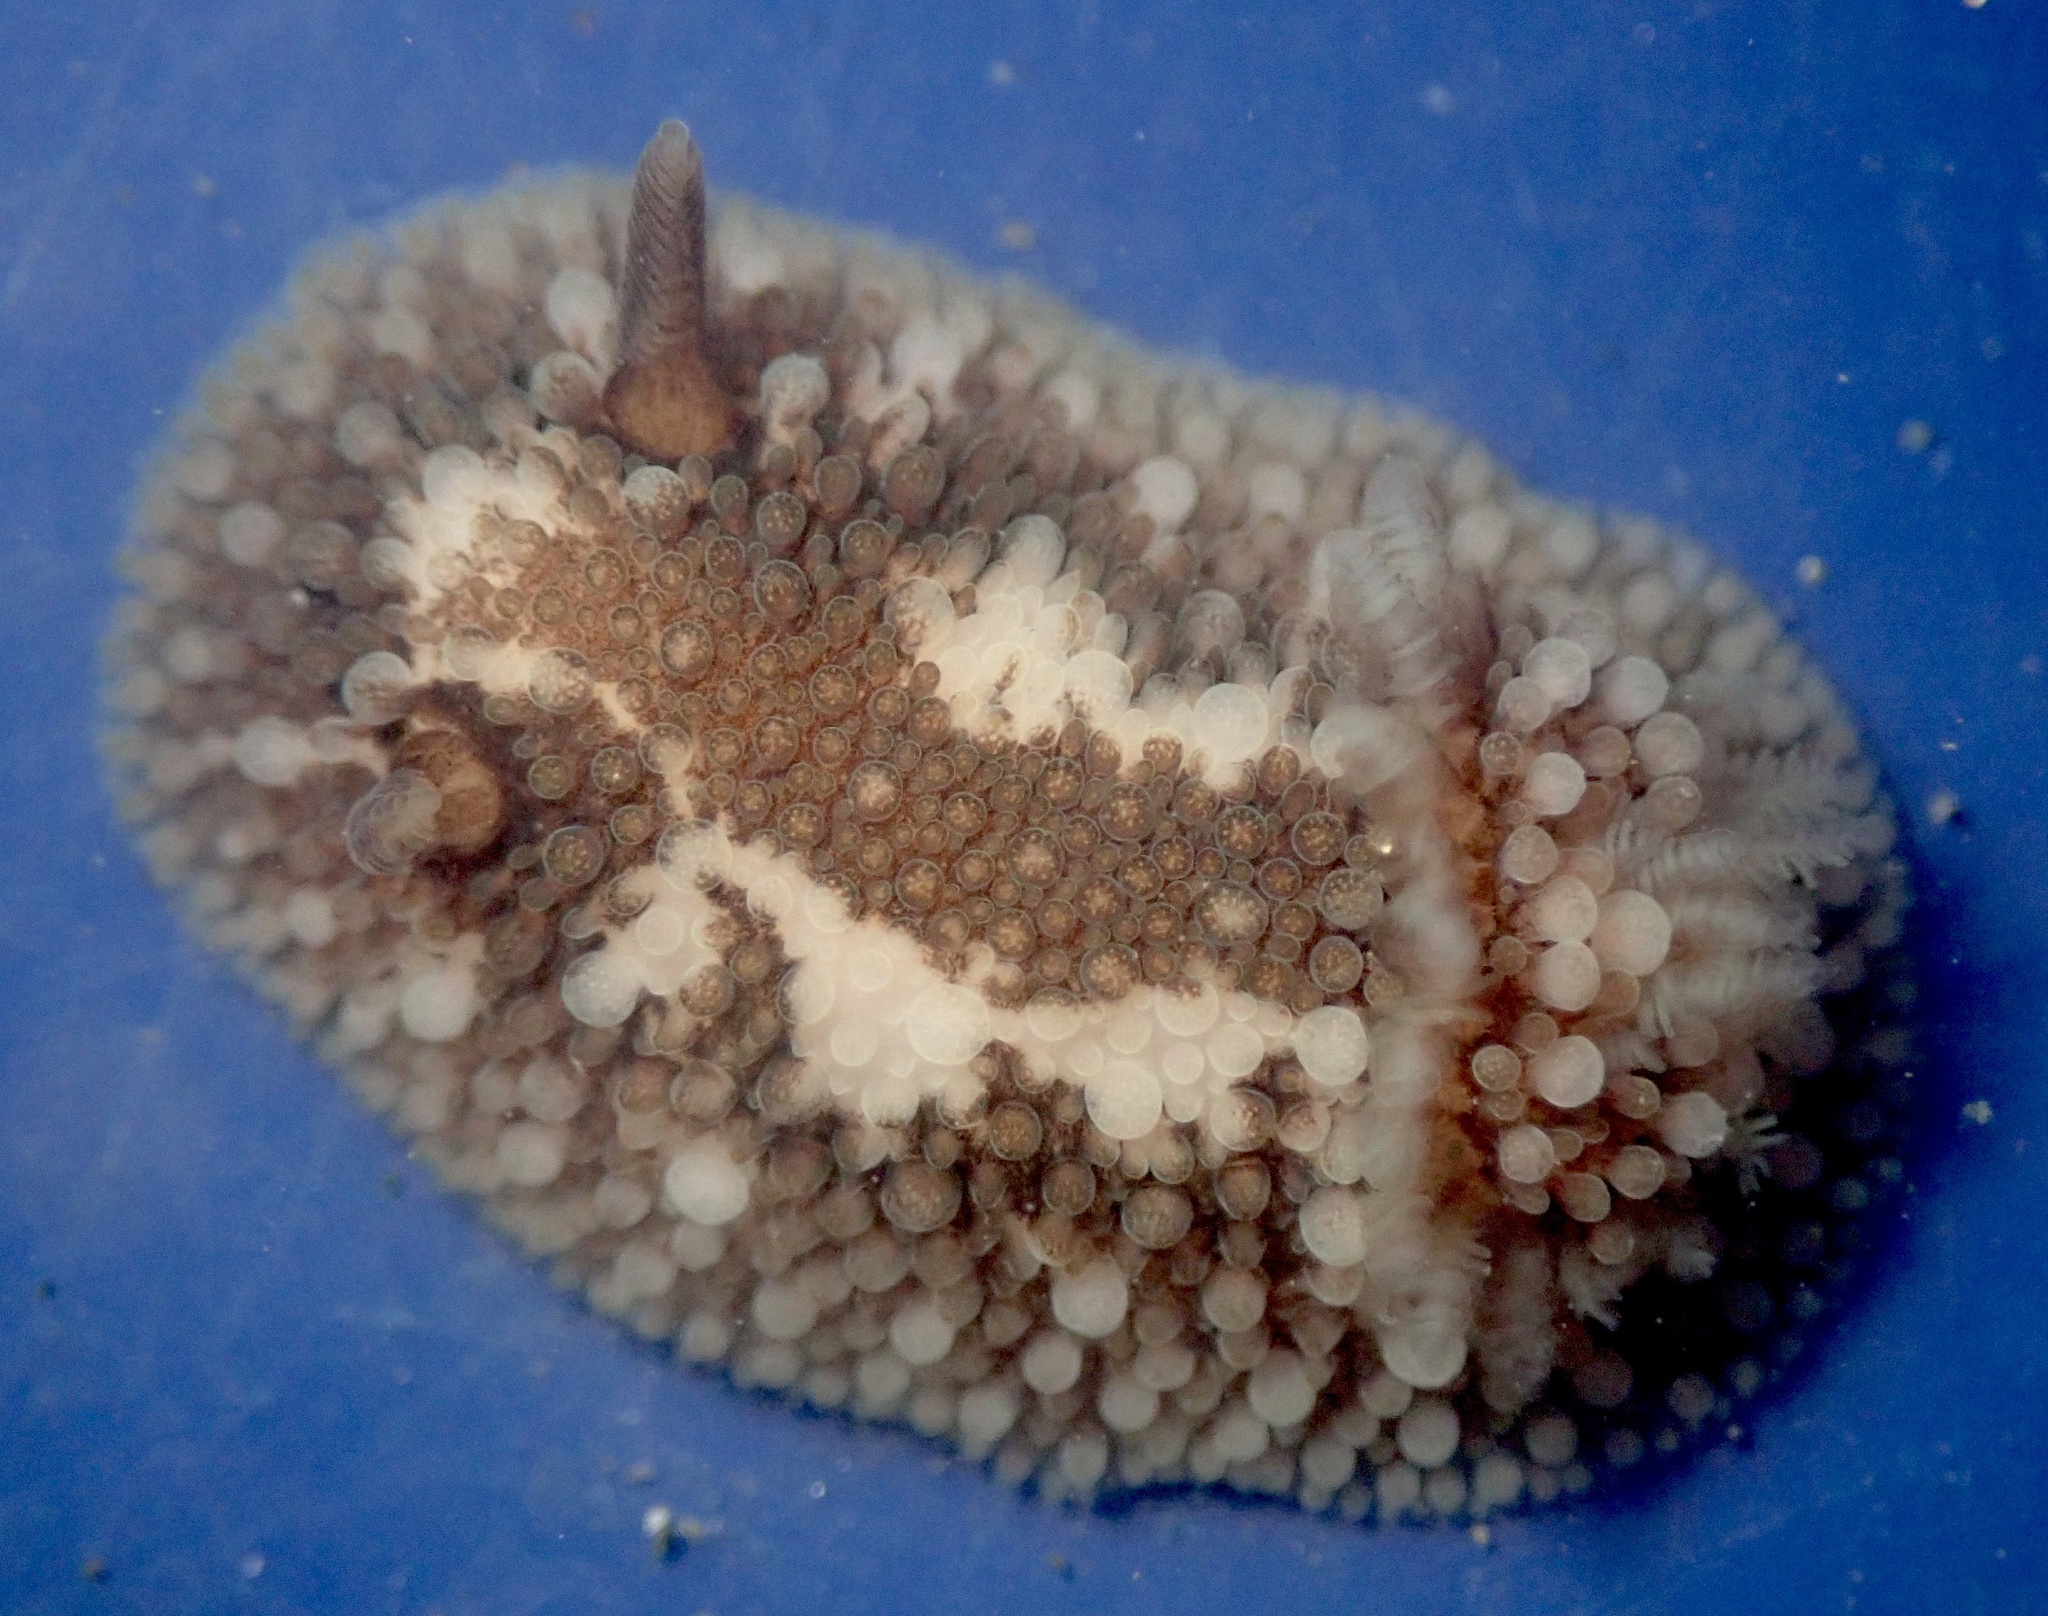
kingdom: Animalia
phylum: Mollusca
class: Gastropoda
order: Nudibranchia
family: Onchidorididae
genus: Onchidoris
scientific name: Onchidoris bilamellata
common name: Barnacle-eating onchidoris
